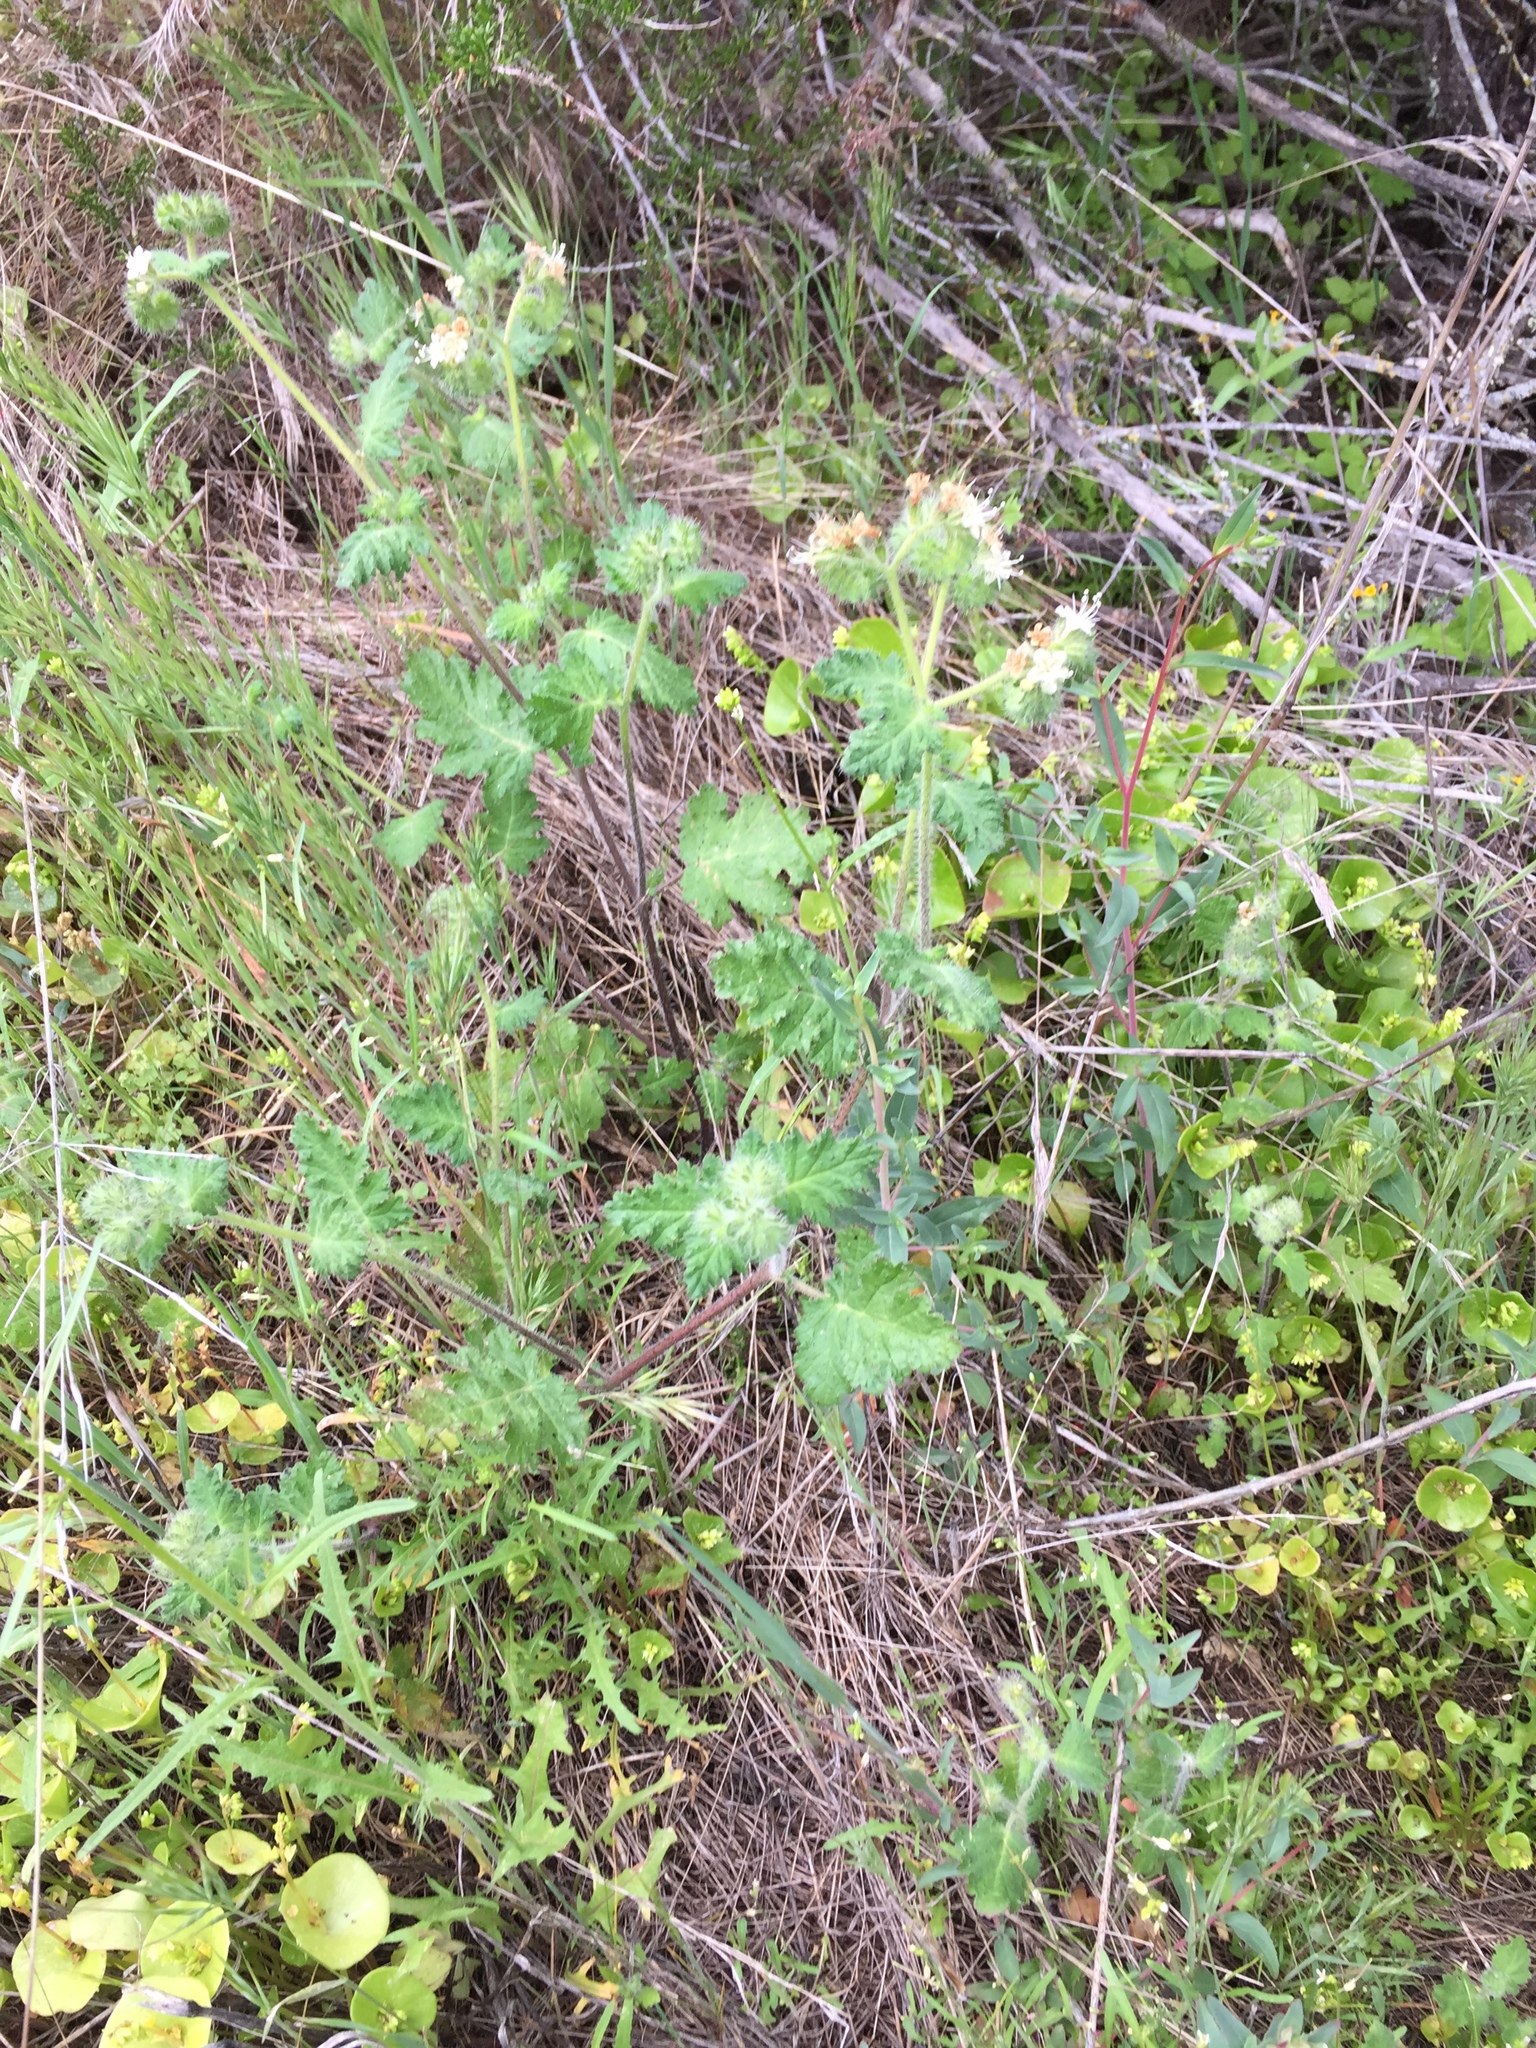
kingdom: Plantae
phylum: Tracheophyta
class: Magnoliopsida
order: Boraginales
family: Hydrophyllaceae
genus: Phacelia
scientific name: Phacelia malvifolia
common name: Mallow-leaf phacelia
